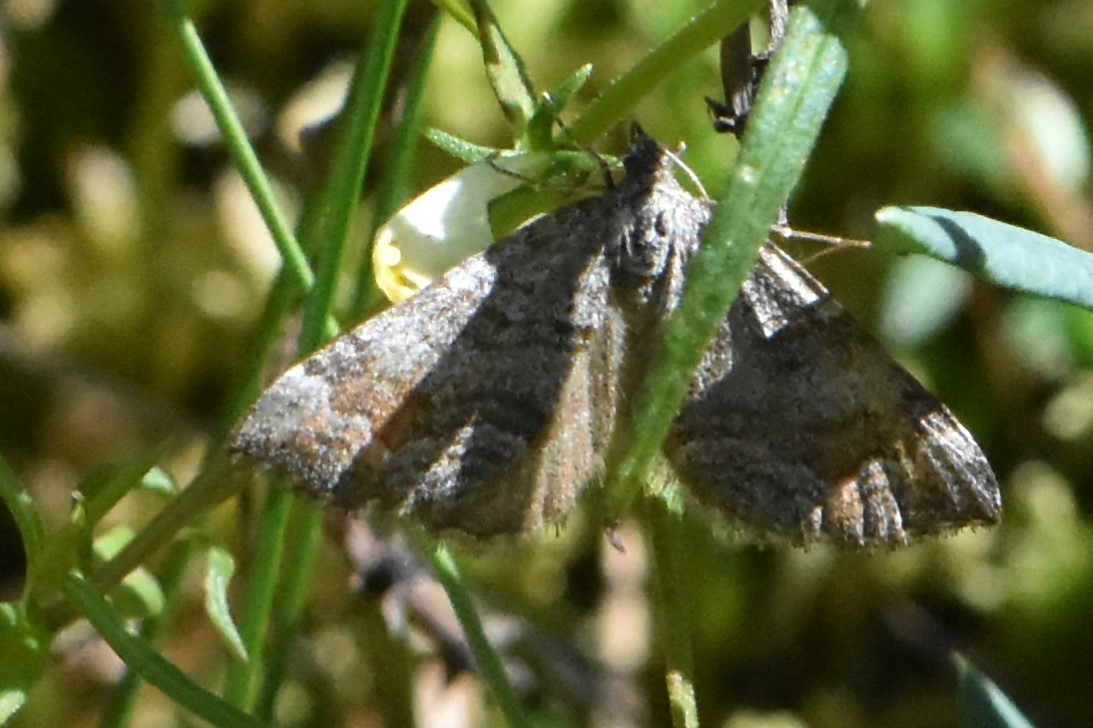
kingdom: Animalia
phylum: Arthropoda
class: Insecta
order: Lepidoptera
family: Geometridae
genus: Carsia
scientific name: Carsia sororiata
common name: Manchester treble-bar
